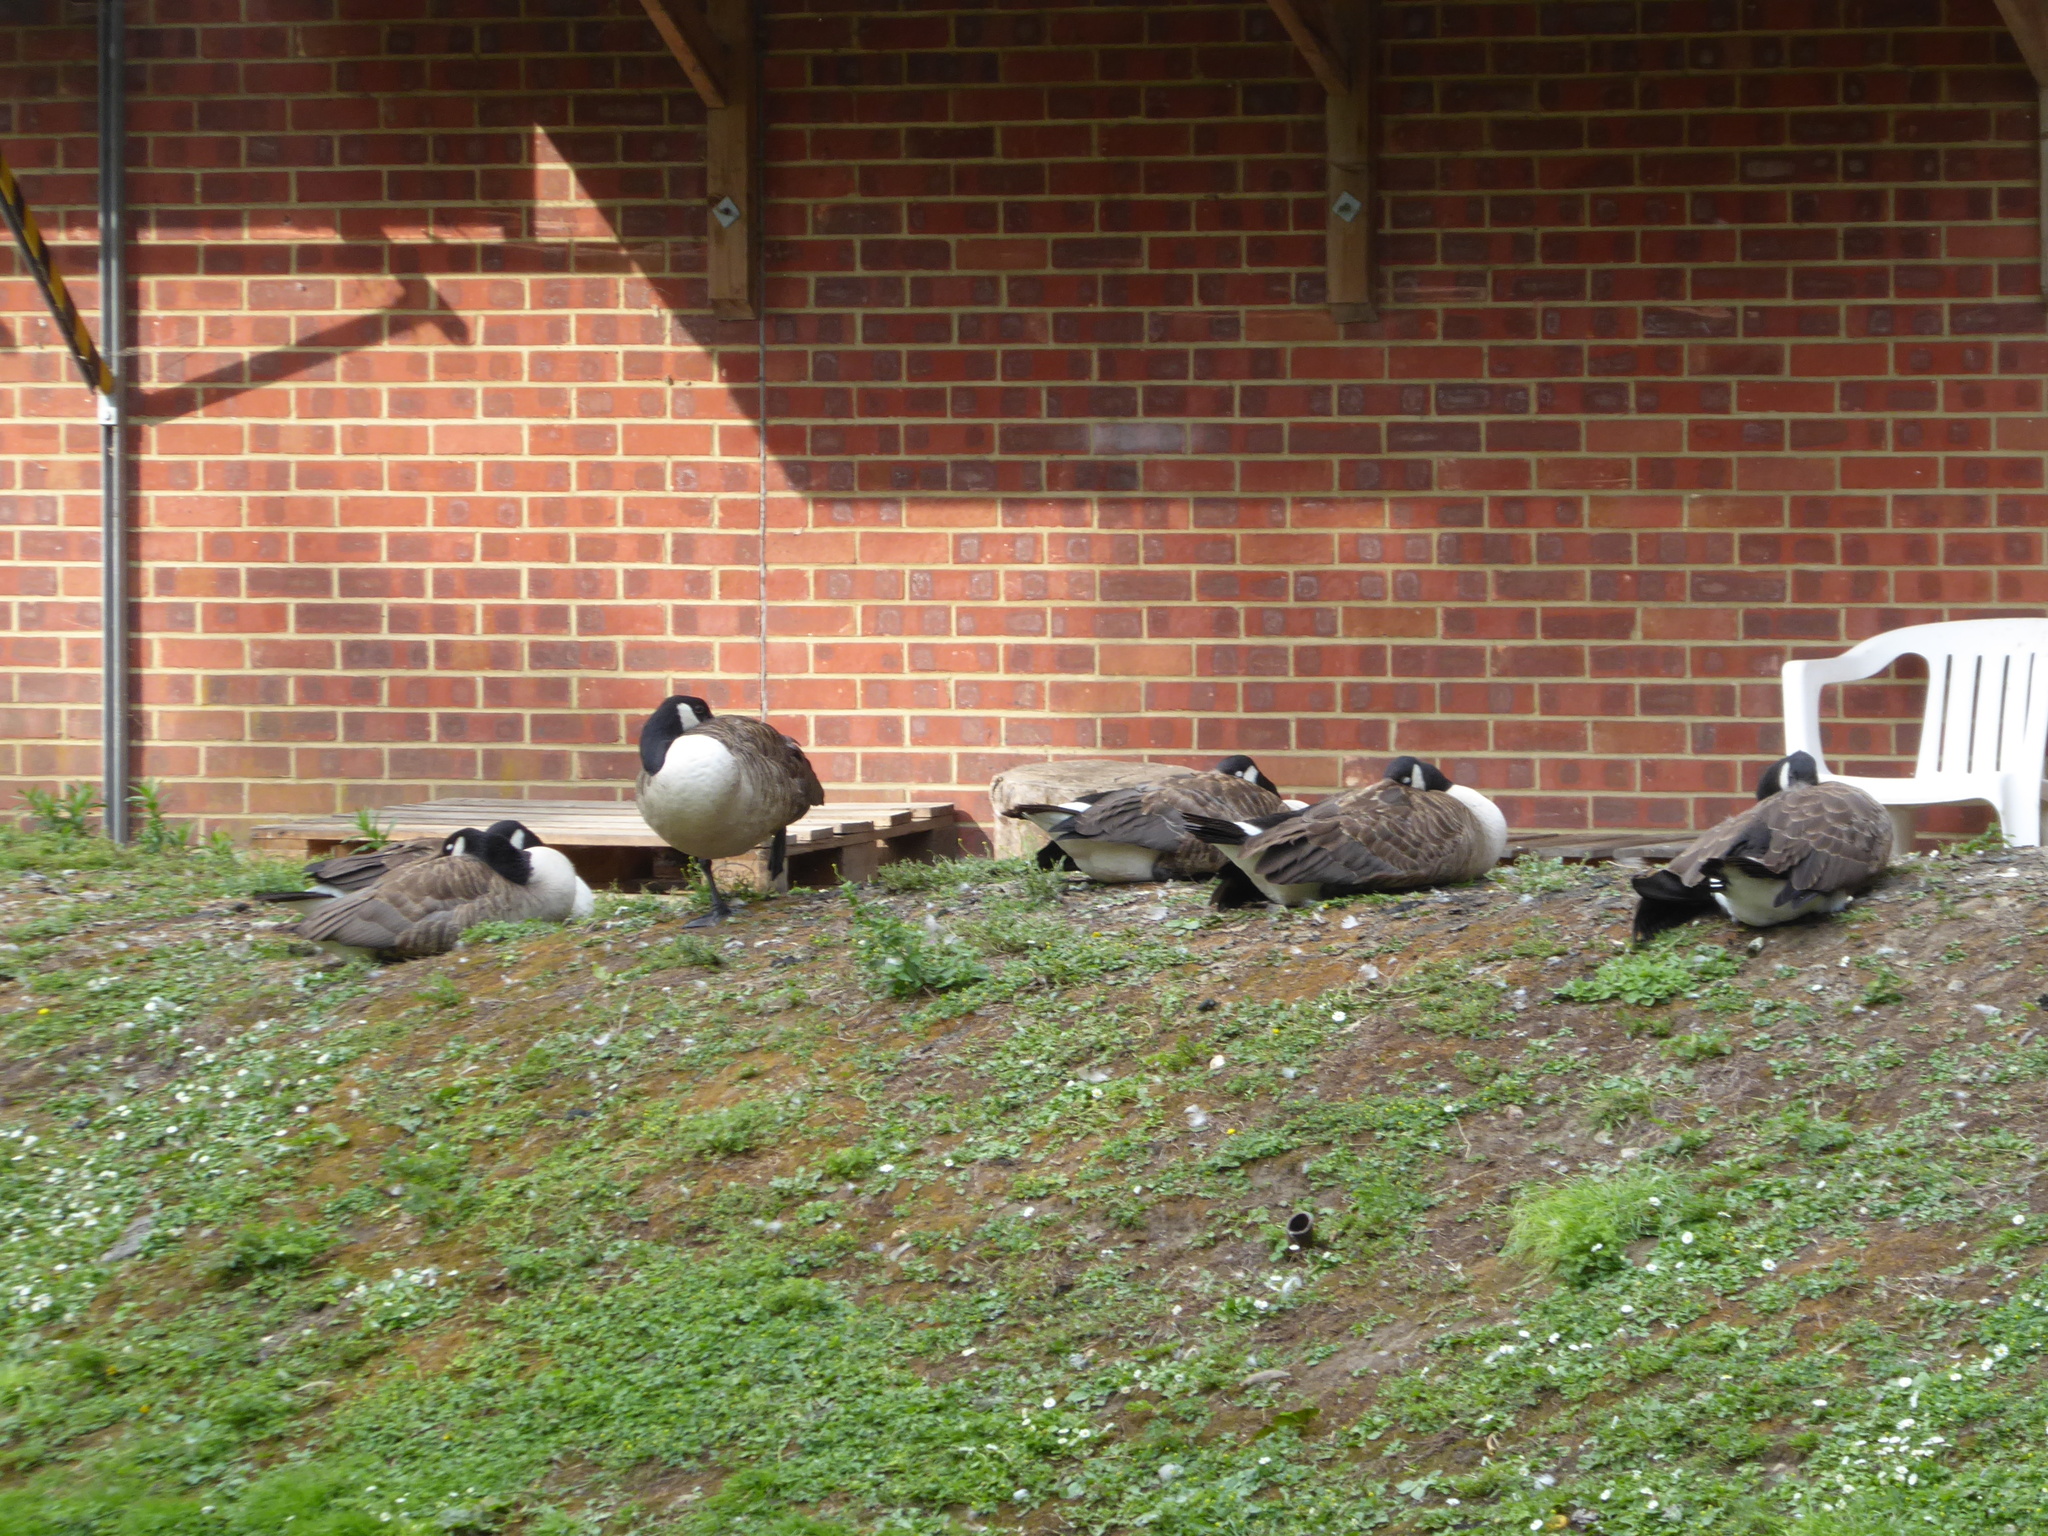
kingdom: Animalia
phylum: Chordata
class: Aves
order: Anseriformes
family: Anatidae
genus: Branta
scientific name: Branta canadensis
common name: Canada goose
